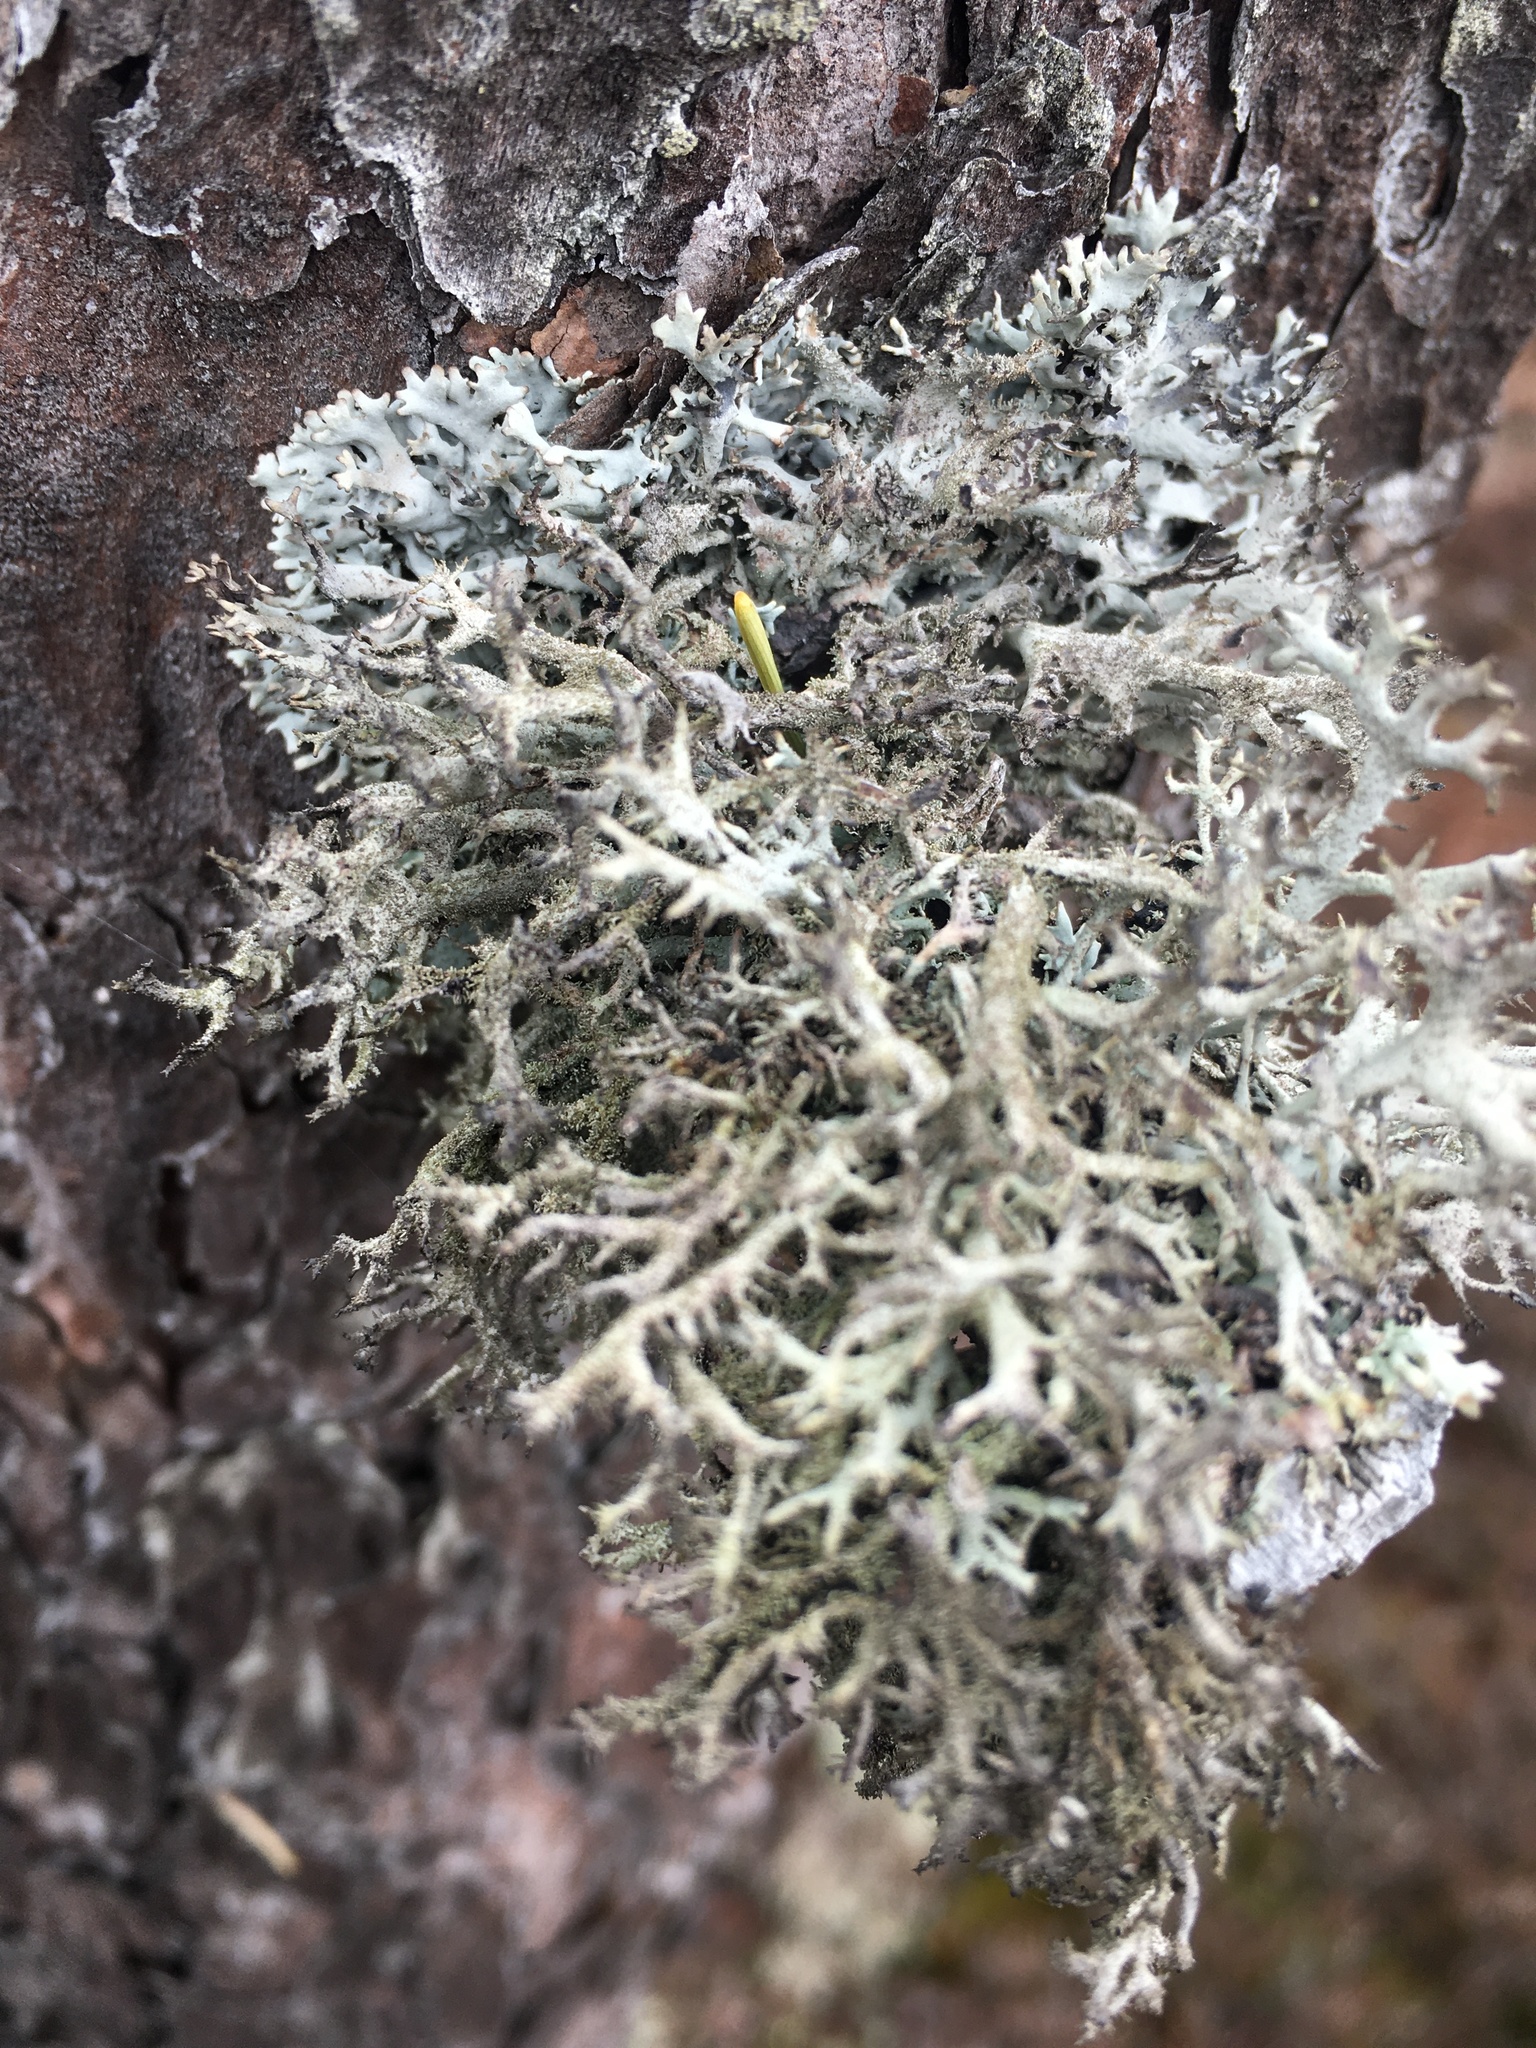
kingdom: Fungi
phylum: Ascomycota
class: Lecanoromycetes
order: Lecanorales
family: Parmeliaceae
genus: Pseudevernia
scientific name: Pseudevernia furfuracea
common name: Tree moss
